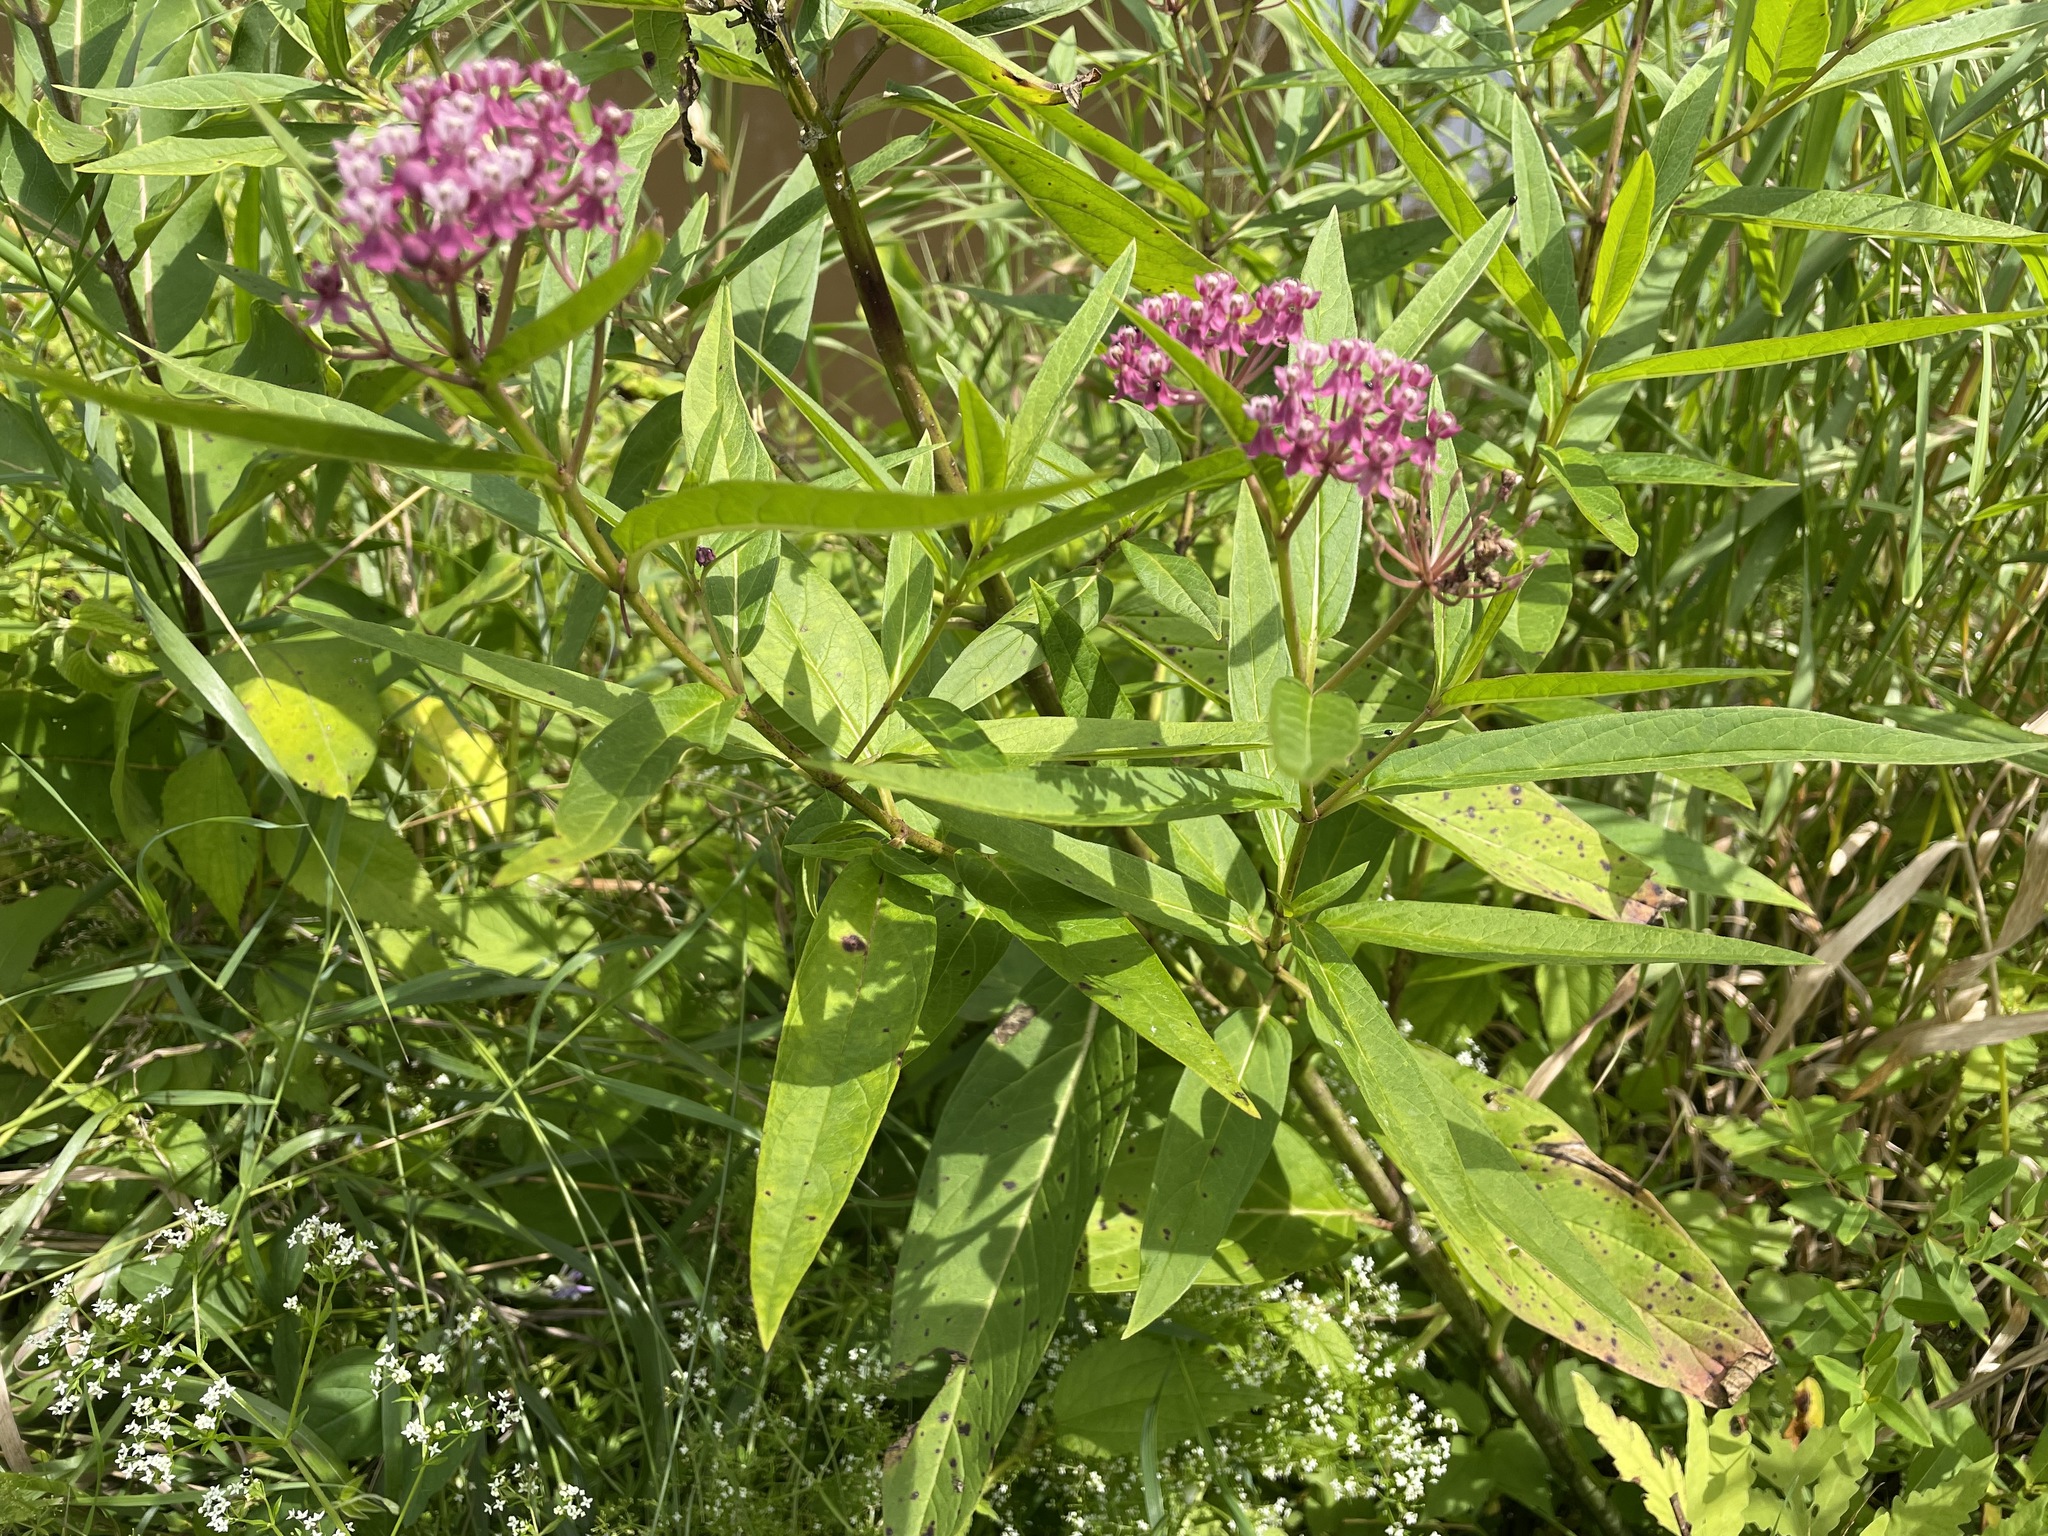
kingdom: Plantae
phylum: Tracheophyta
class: Magnoliopsida
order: Gentianales
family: Apocynaceae
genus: Asclepias
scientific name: Asclepias incarnata
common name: Swamp milkweed
